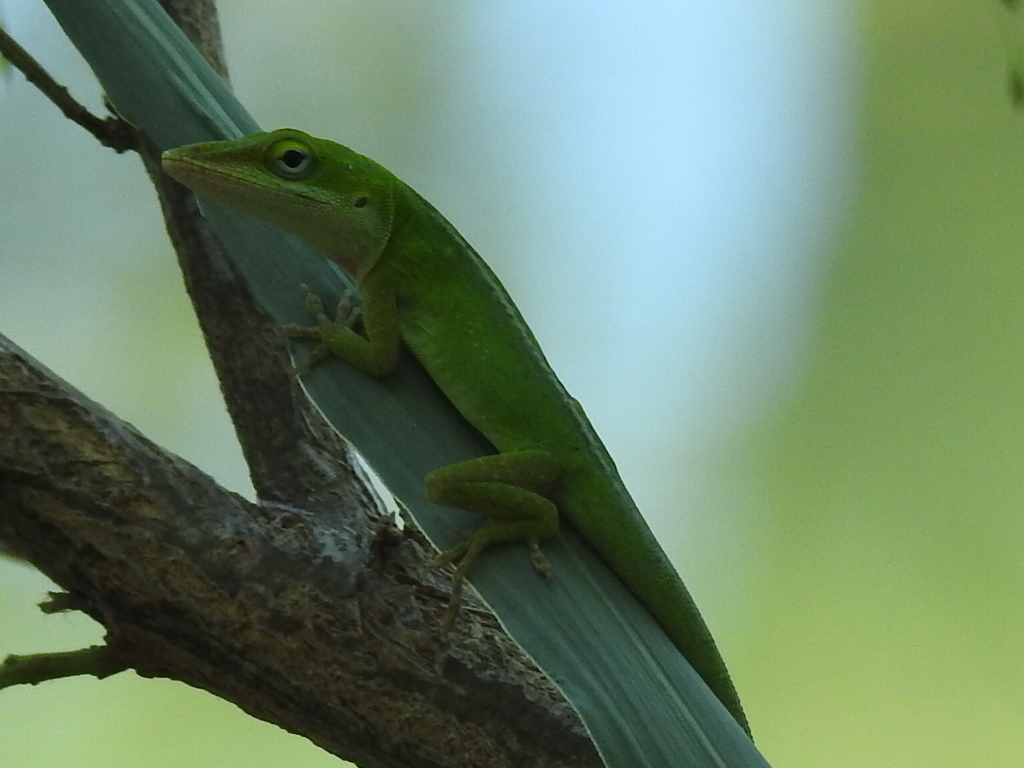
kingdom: Animalia
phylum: Chordata
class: Squamata
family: Dactyloidae
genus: Anolis
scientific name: Anolis carolinensis
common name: Green anole
